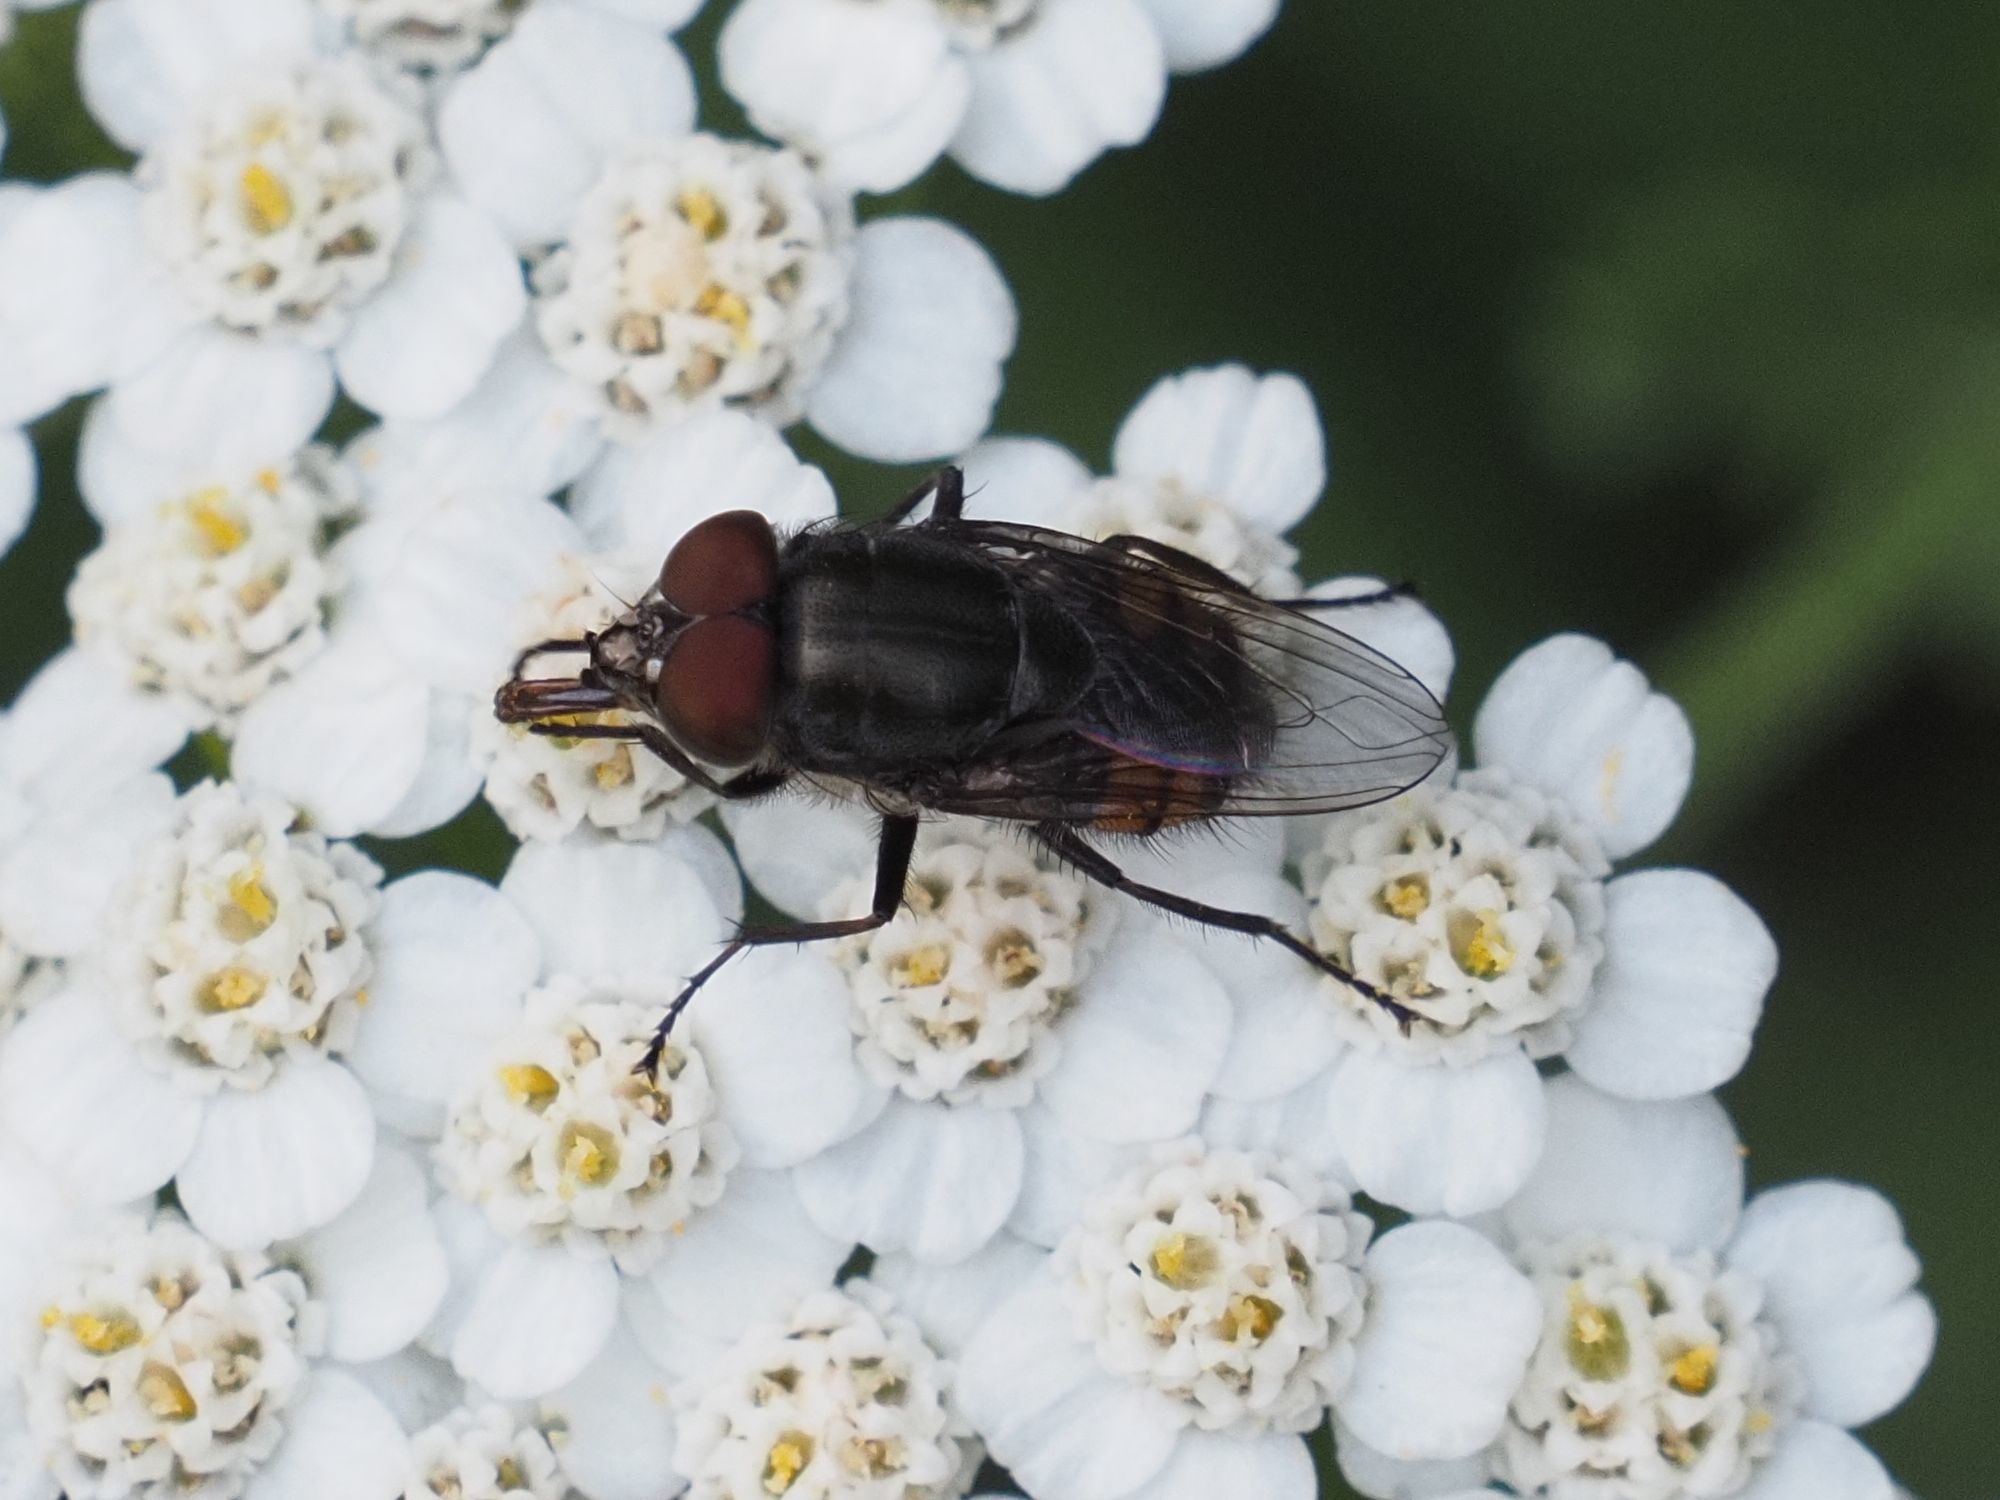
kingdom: Animalia
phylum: Arthropoda
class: Insecta
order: Diptera
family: Calliphoridae
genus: Stomorhina
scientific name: Stomorhina lunata
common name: Locust blowfly
